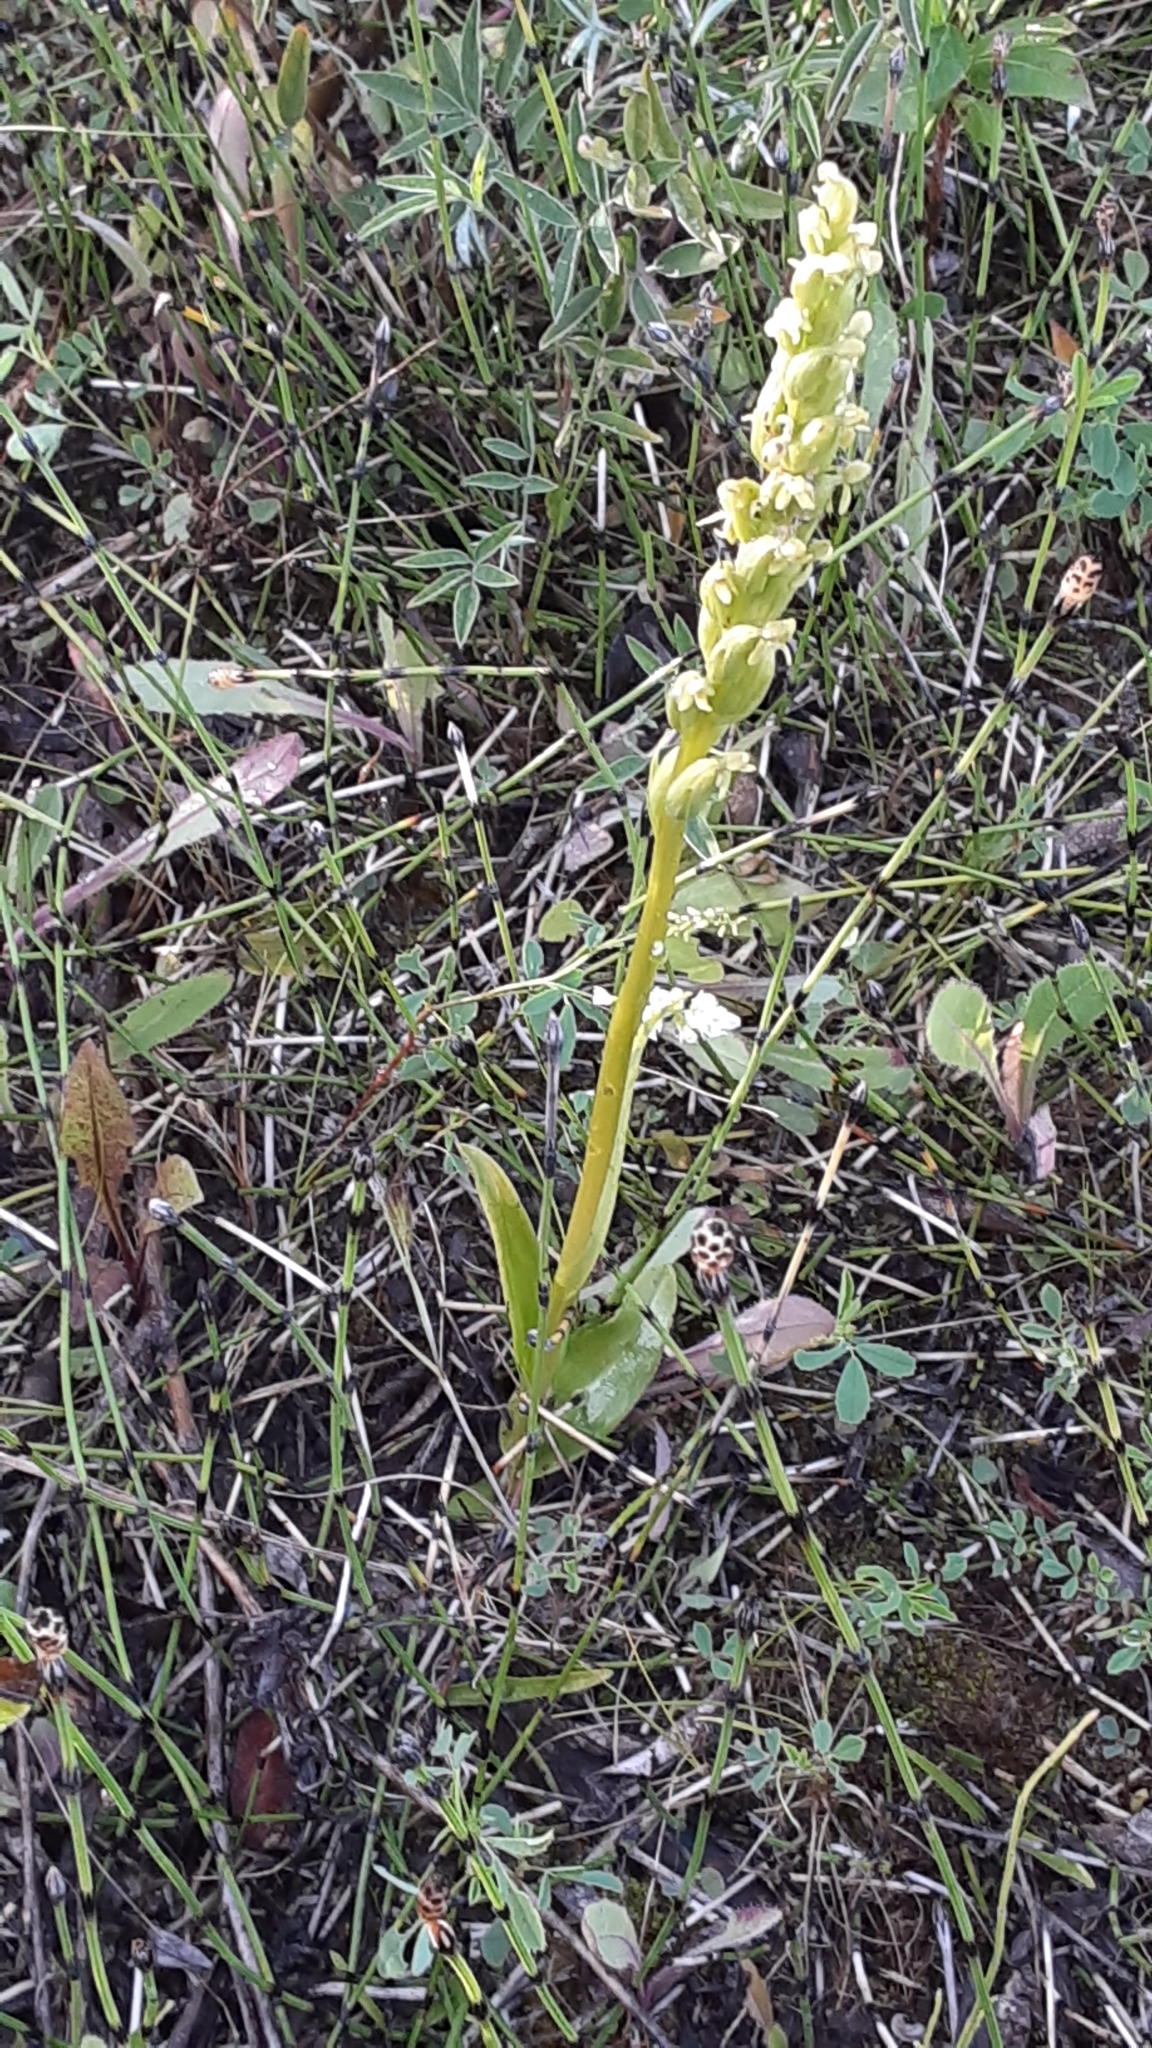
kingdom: Plantae
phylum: Tracheophyta
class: Liliopsida
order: Asparagales
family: Orchidaceae
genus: Platanthera
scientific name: Platanthera aquilonis
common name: Northern green orchid
